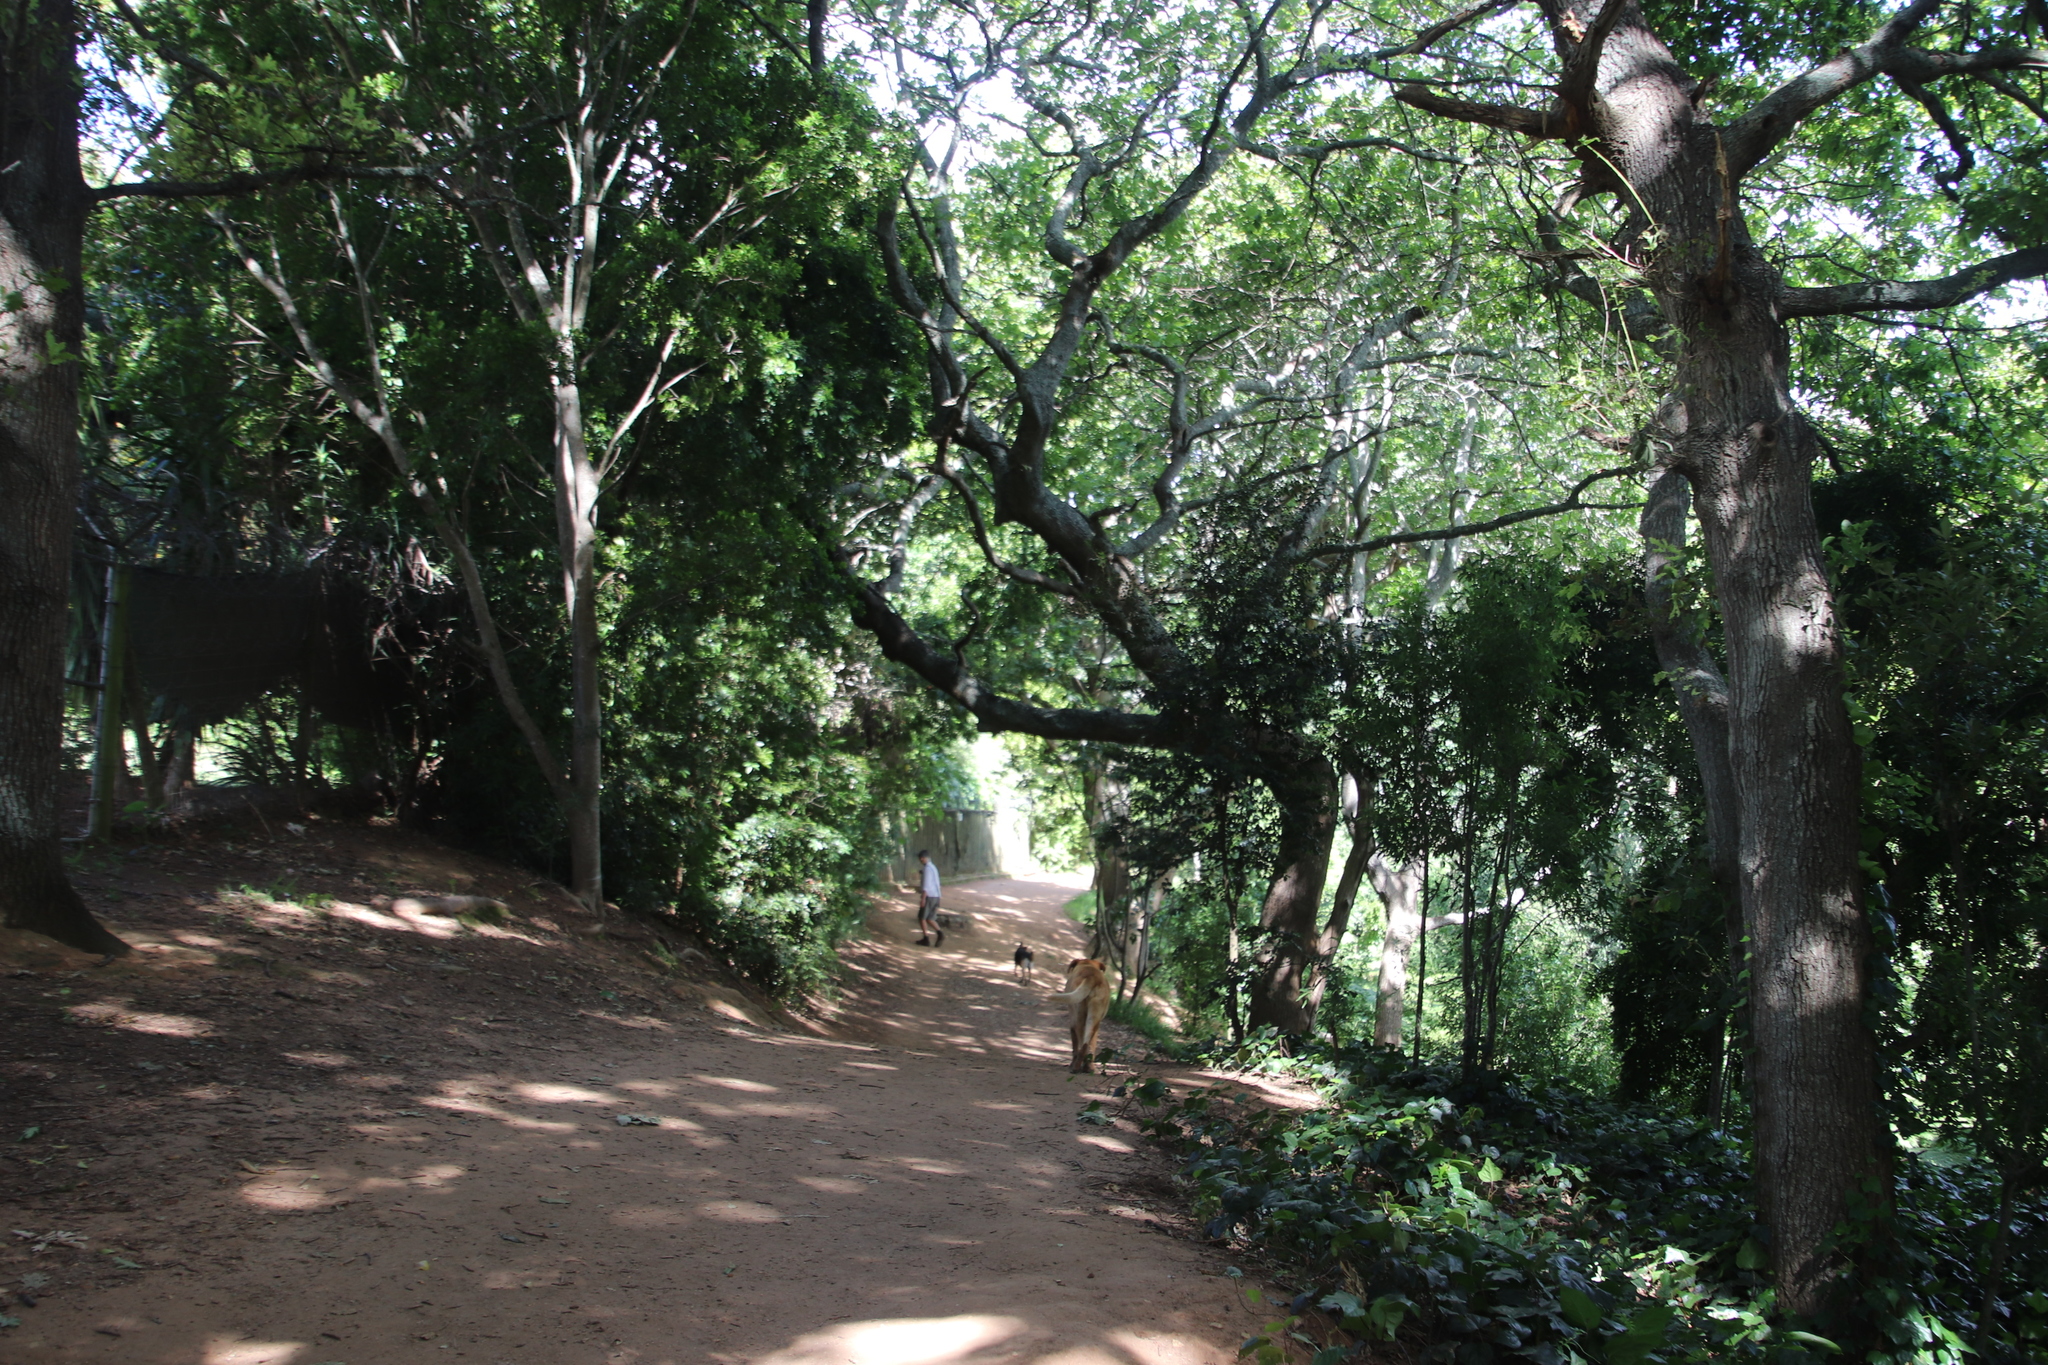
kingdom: Plantae
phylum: Tracheophyta
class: Magnoliopsida
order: Fagales
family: Fagaceae
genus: Quercus
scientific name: Quercus robur
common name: Pedunculate oak
